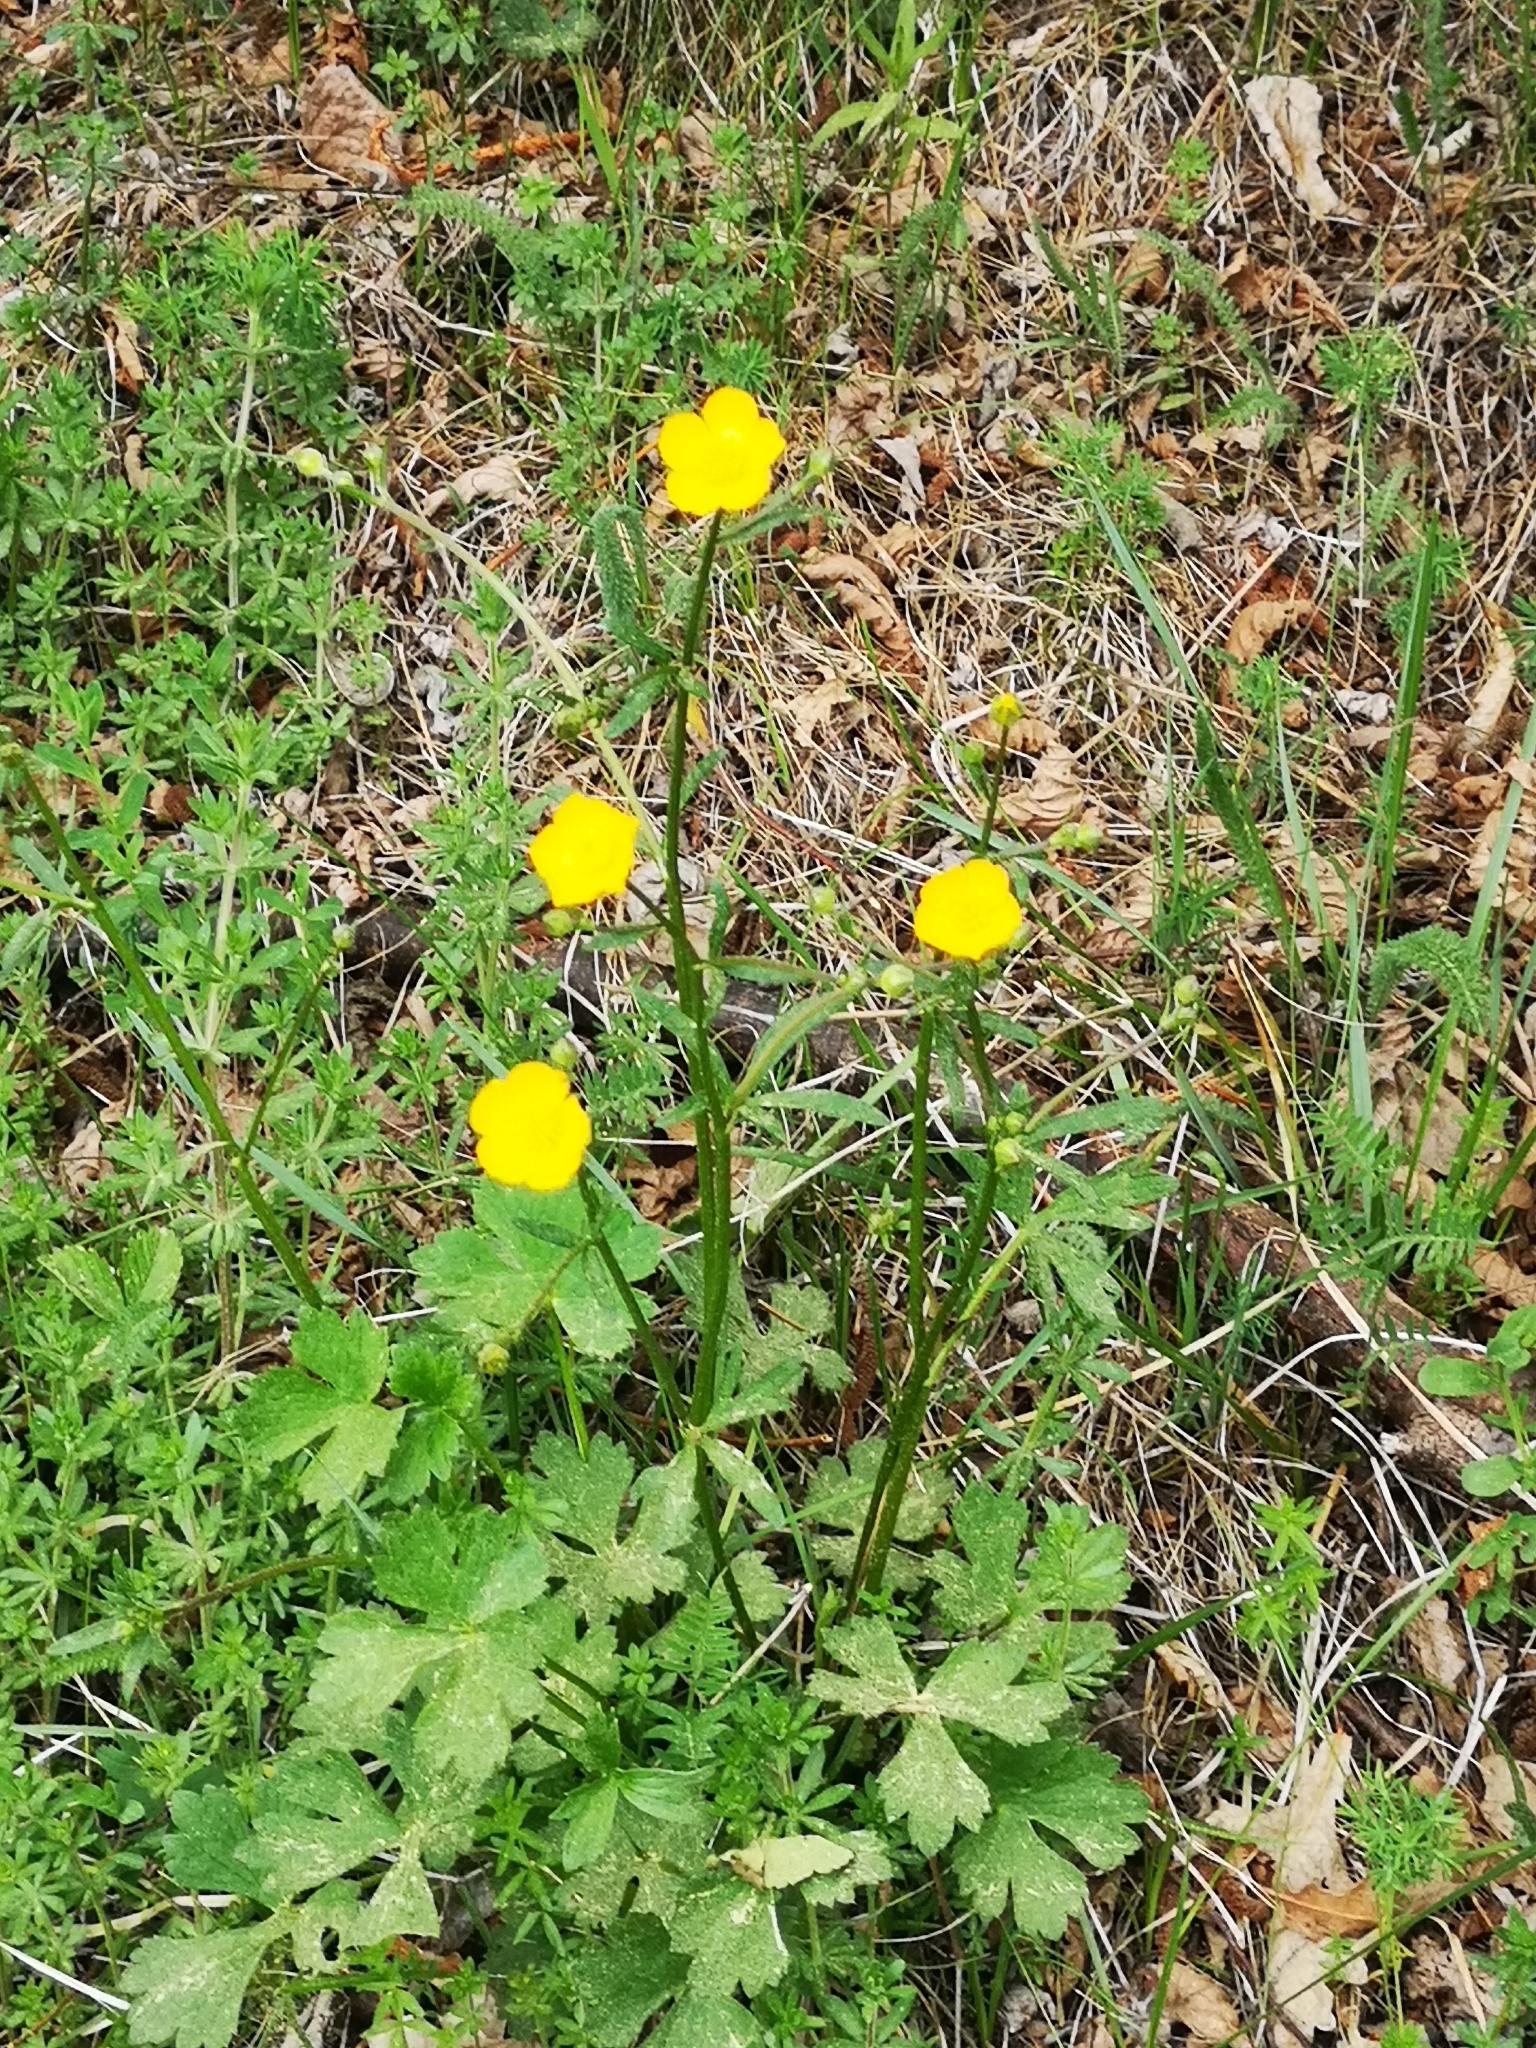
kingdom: Plantae
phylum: Tracheophyta
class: Magnoliopsida
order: Ranunculales
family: Ranunculaceae
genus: Ranunculus
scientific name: Ranunculus lanuginosus
